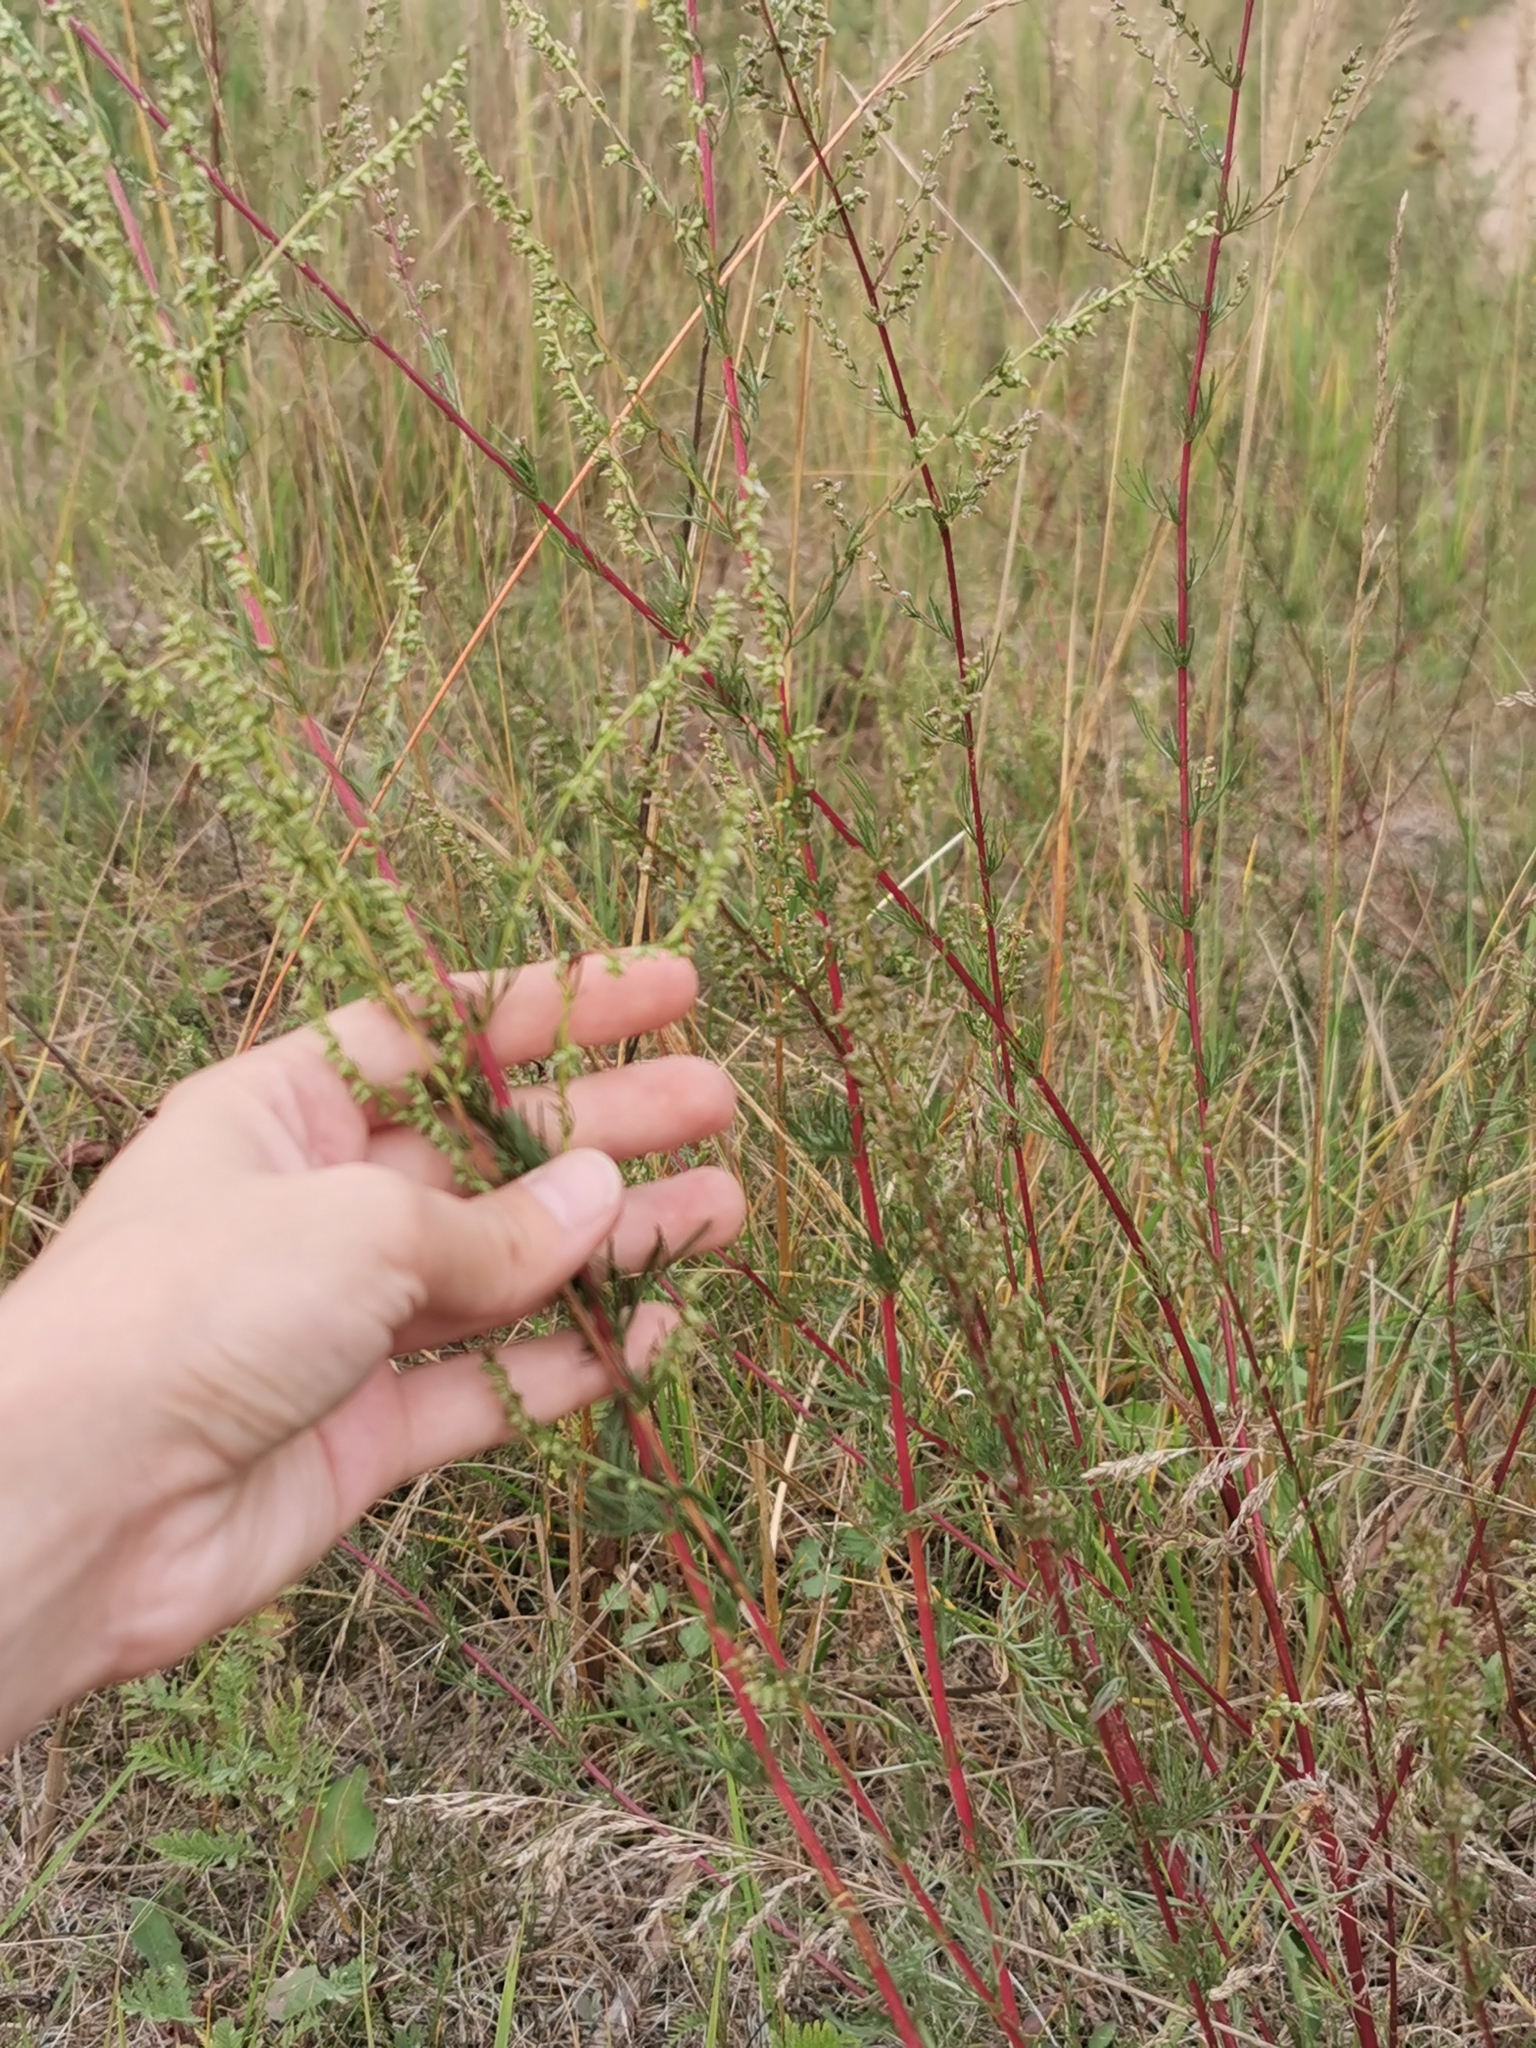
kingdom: Plantae
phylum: Tracheophyta
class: Magnoliopsida
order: Asterales
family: Asteraceae
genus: Artemisia
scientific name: Artemisia campestris
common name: Field wormwood
